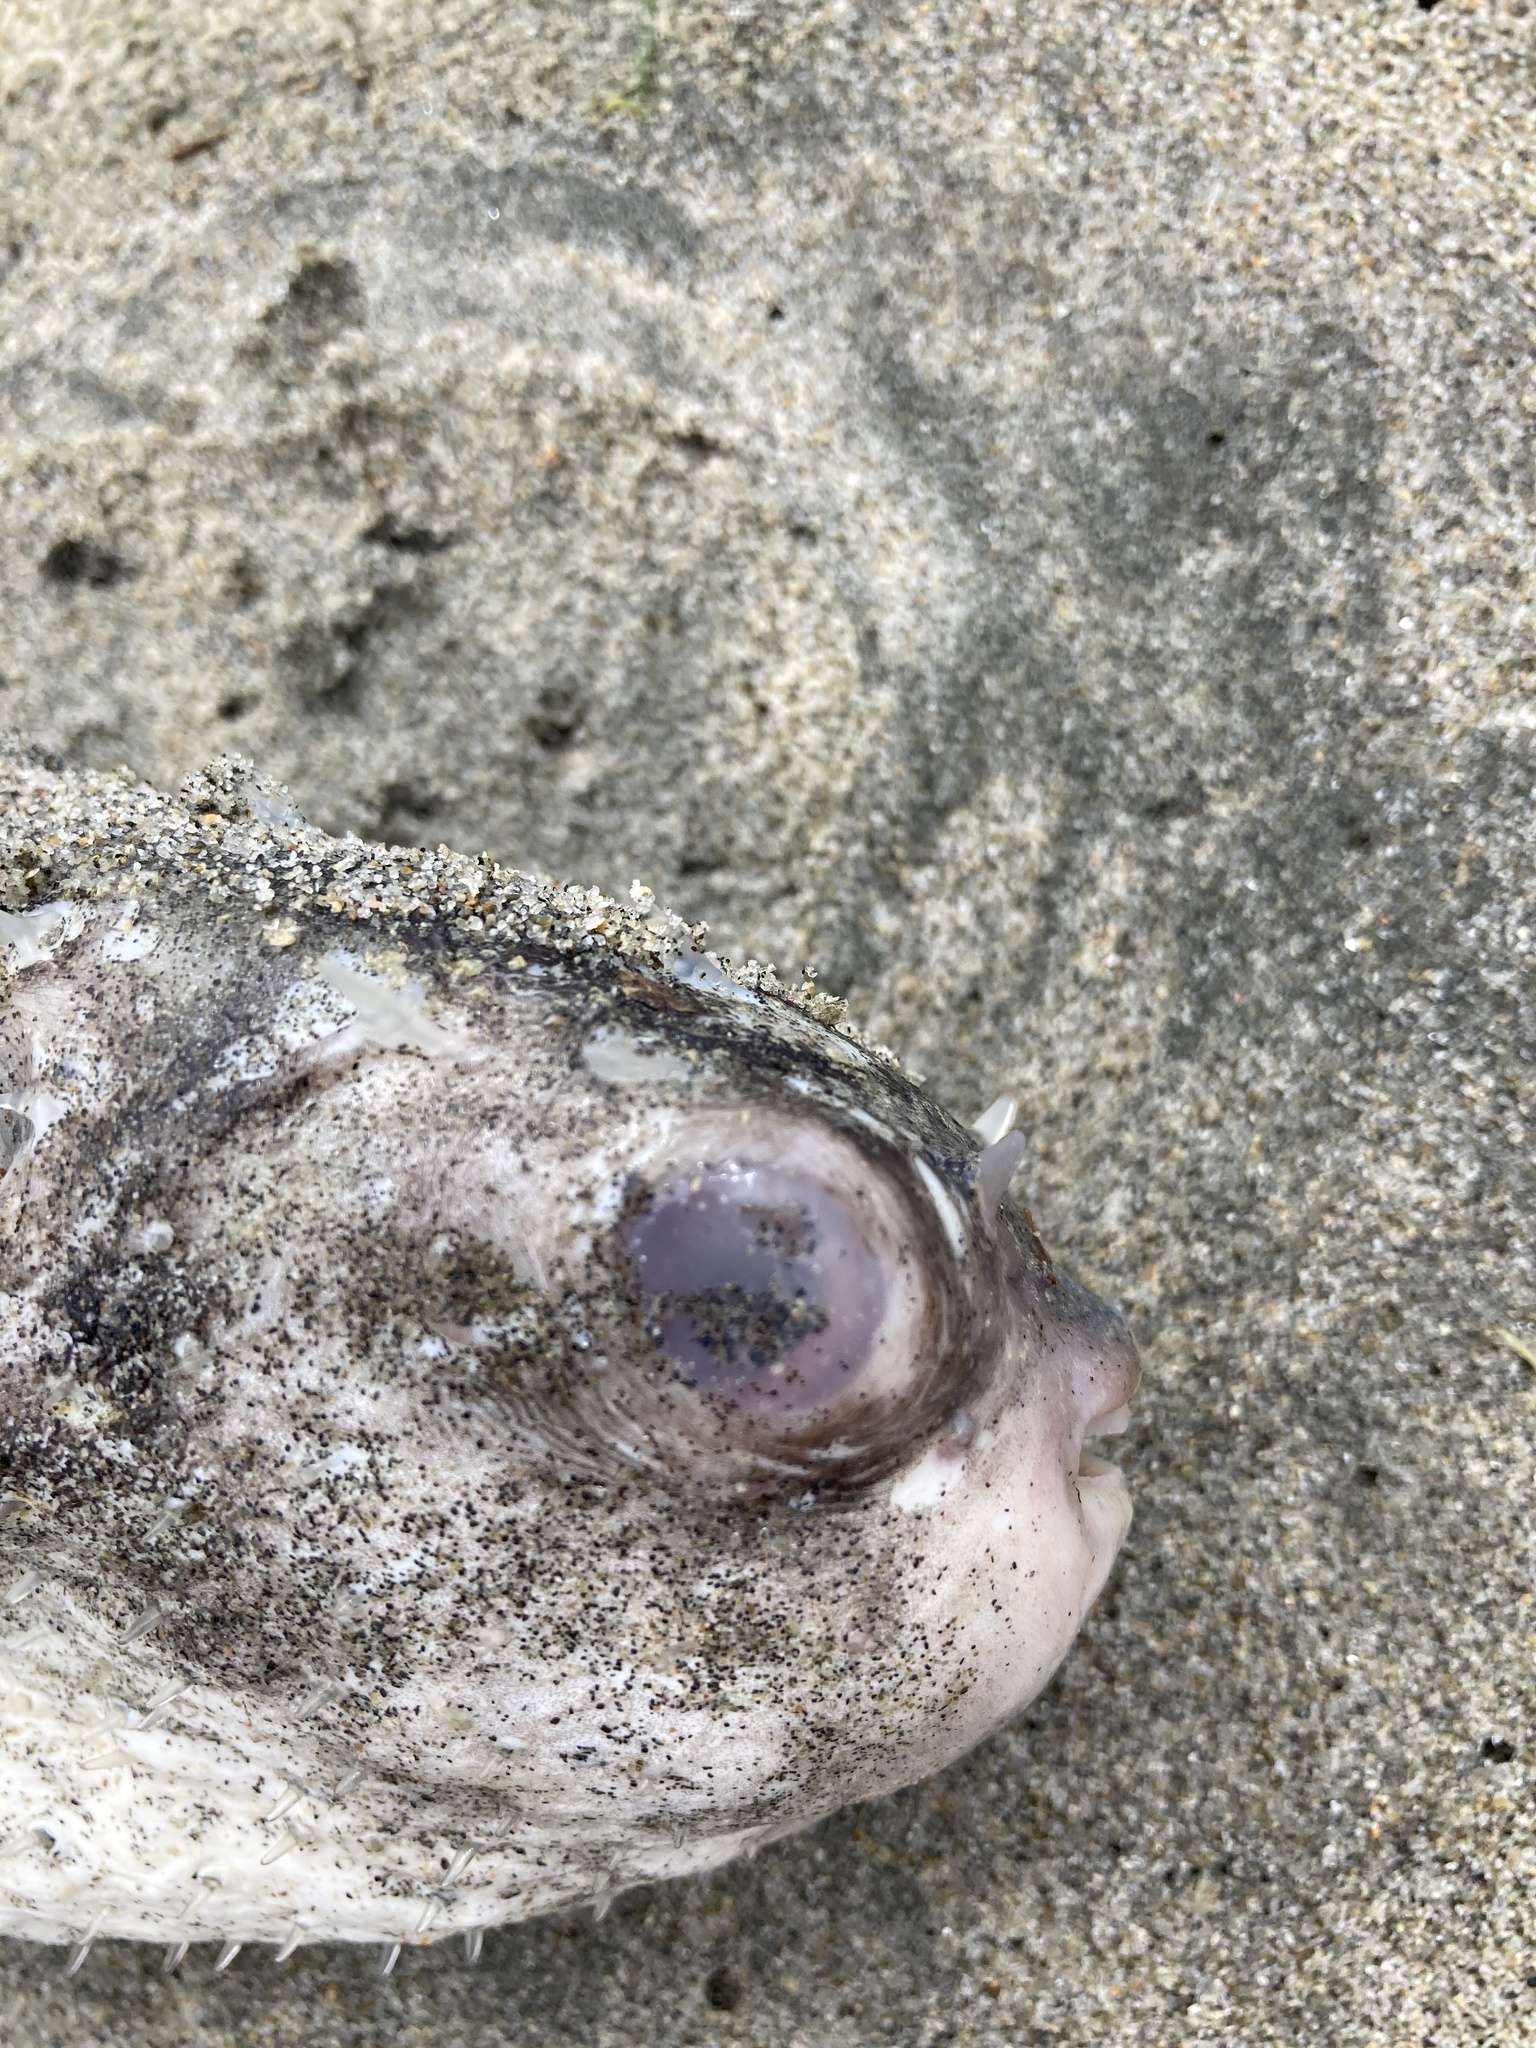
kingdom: Animalia
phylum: Chordata
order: Tetraodontiformes
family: Diodontidae
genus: Allomycterus
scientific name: Allomycterus pilatus
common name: No common name
